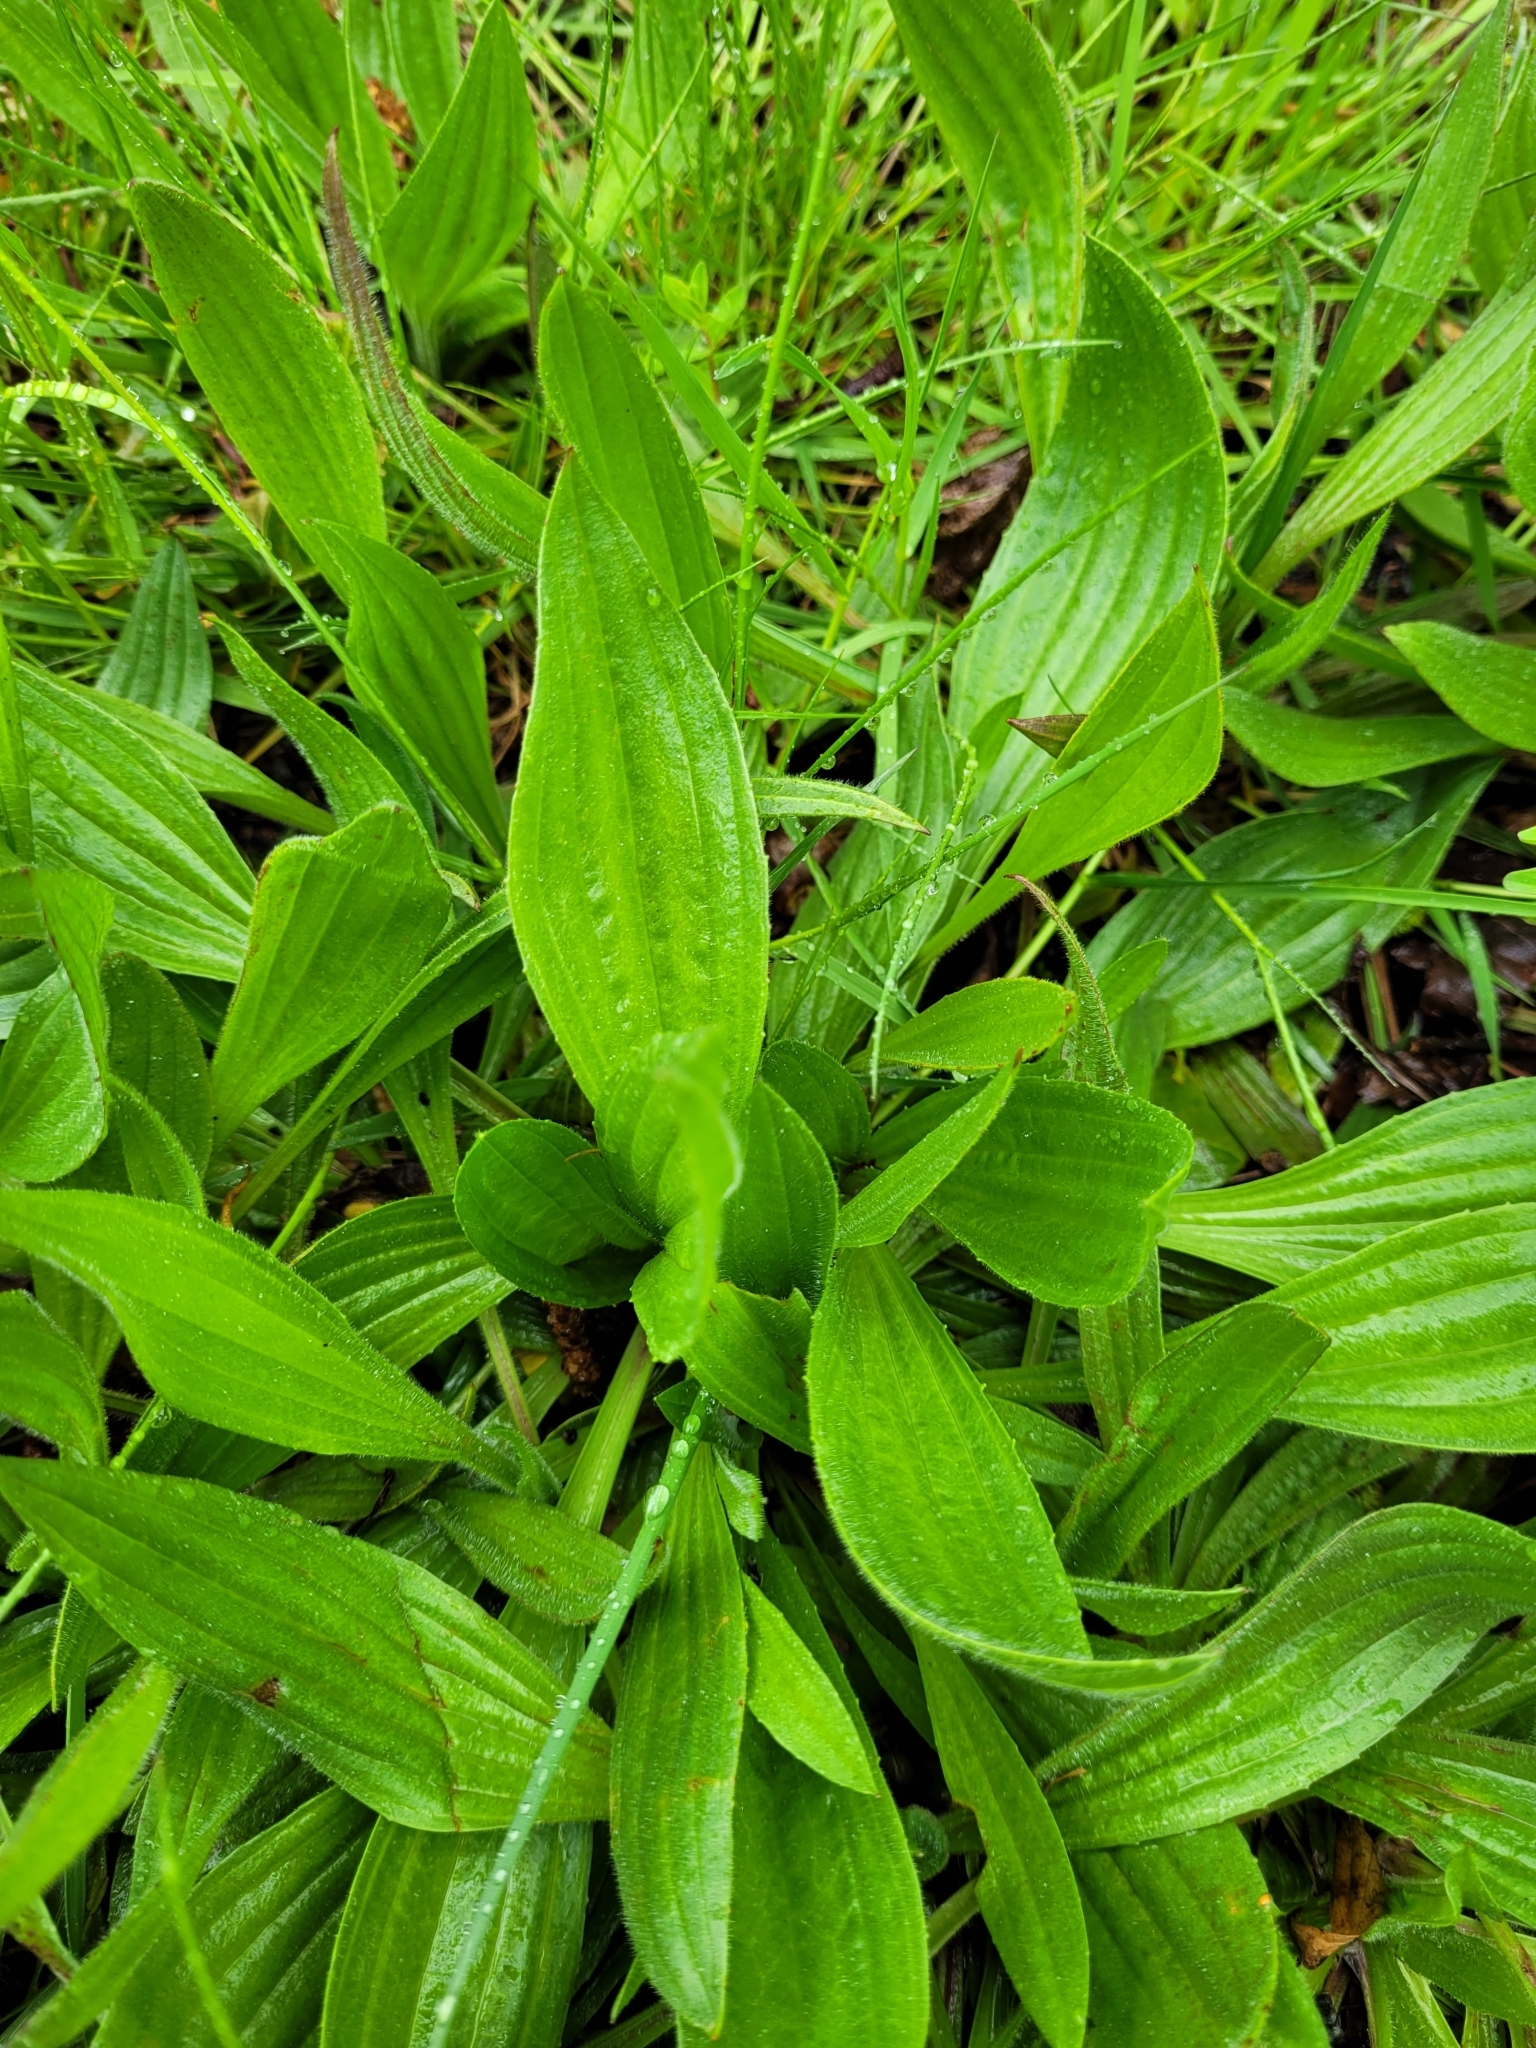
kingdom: Plantae
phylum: Tracheophyta
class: Magnoliopsida
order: Lamiales
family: Plantaginaceae
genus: Plantago
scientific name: Plantago lanceolata
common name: Ribwort plantain
